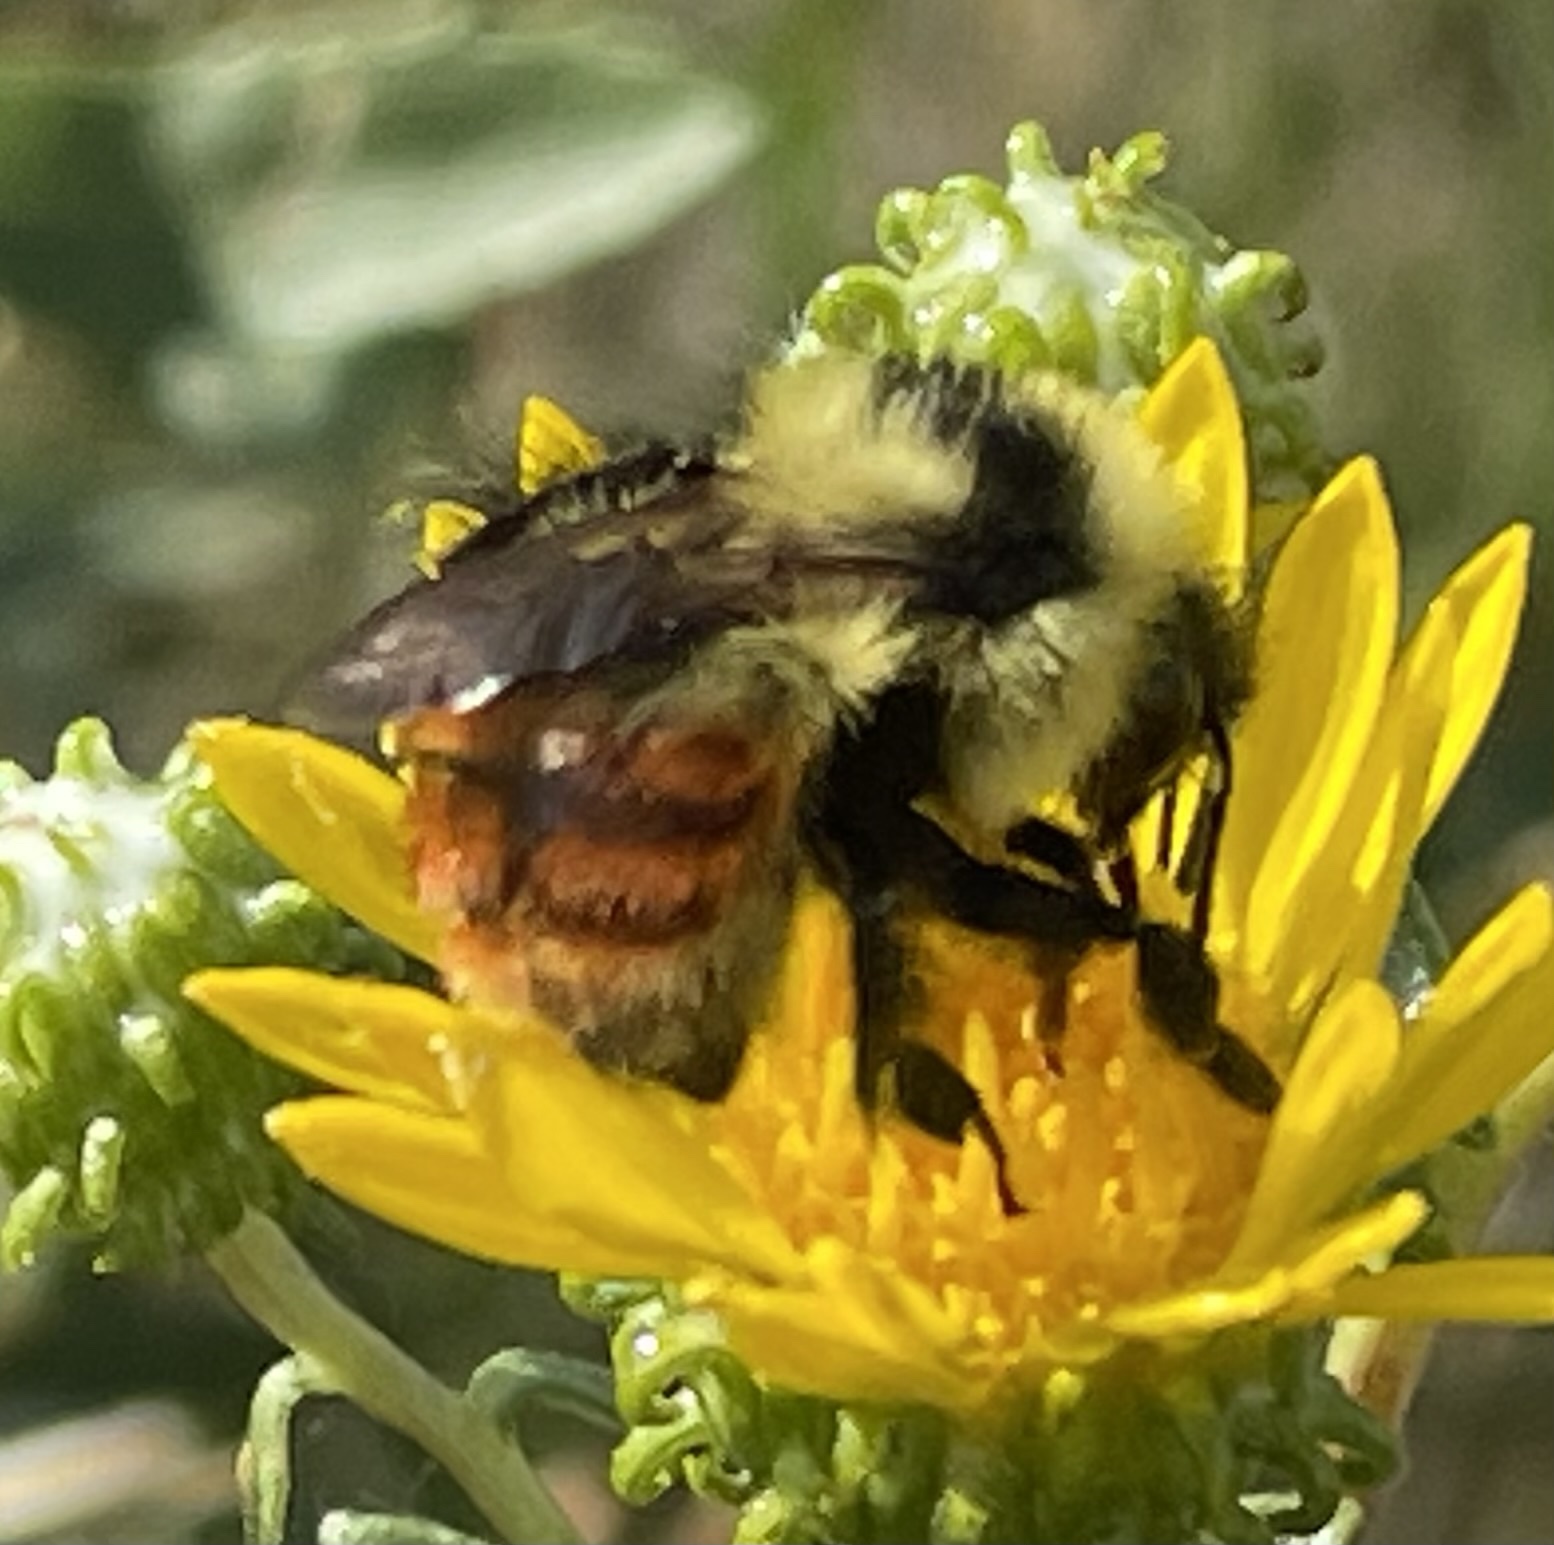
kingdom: Animalia
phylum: Arthropoda
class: Insecta
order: Hymenoptera
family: Apidae
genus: Bombus
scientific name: Bombus rufocinctus
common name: Red-belted bumble bee
